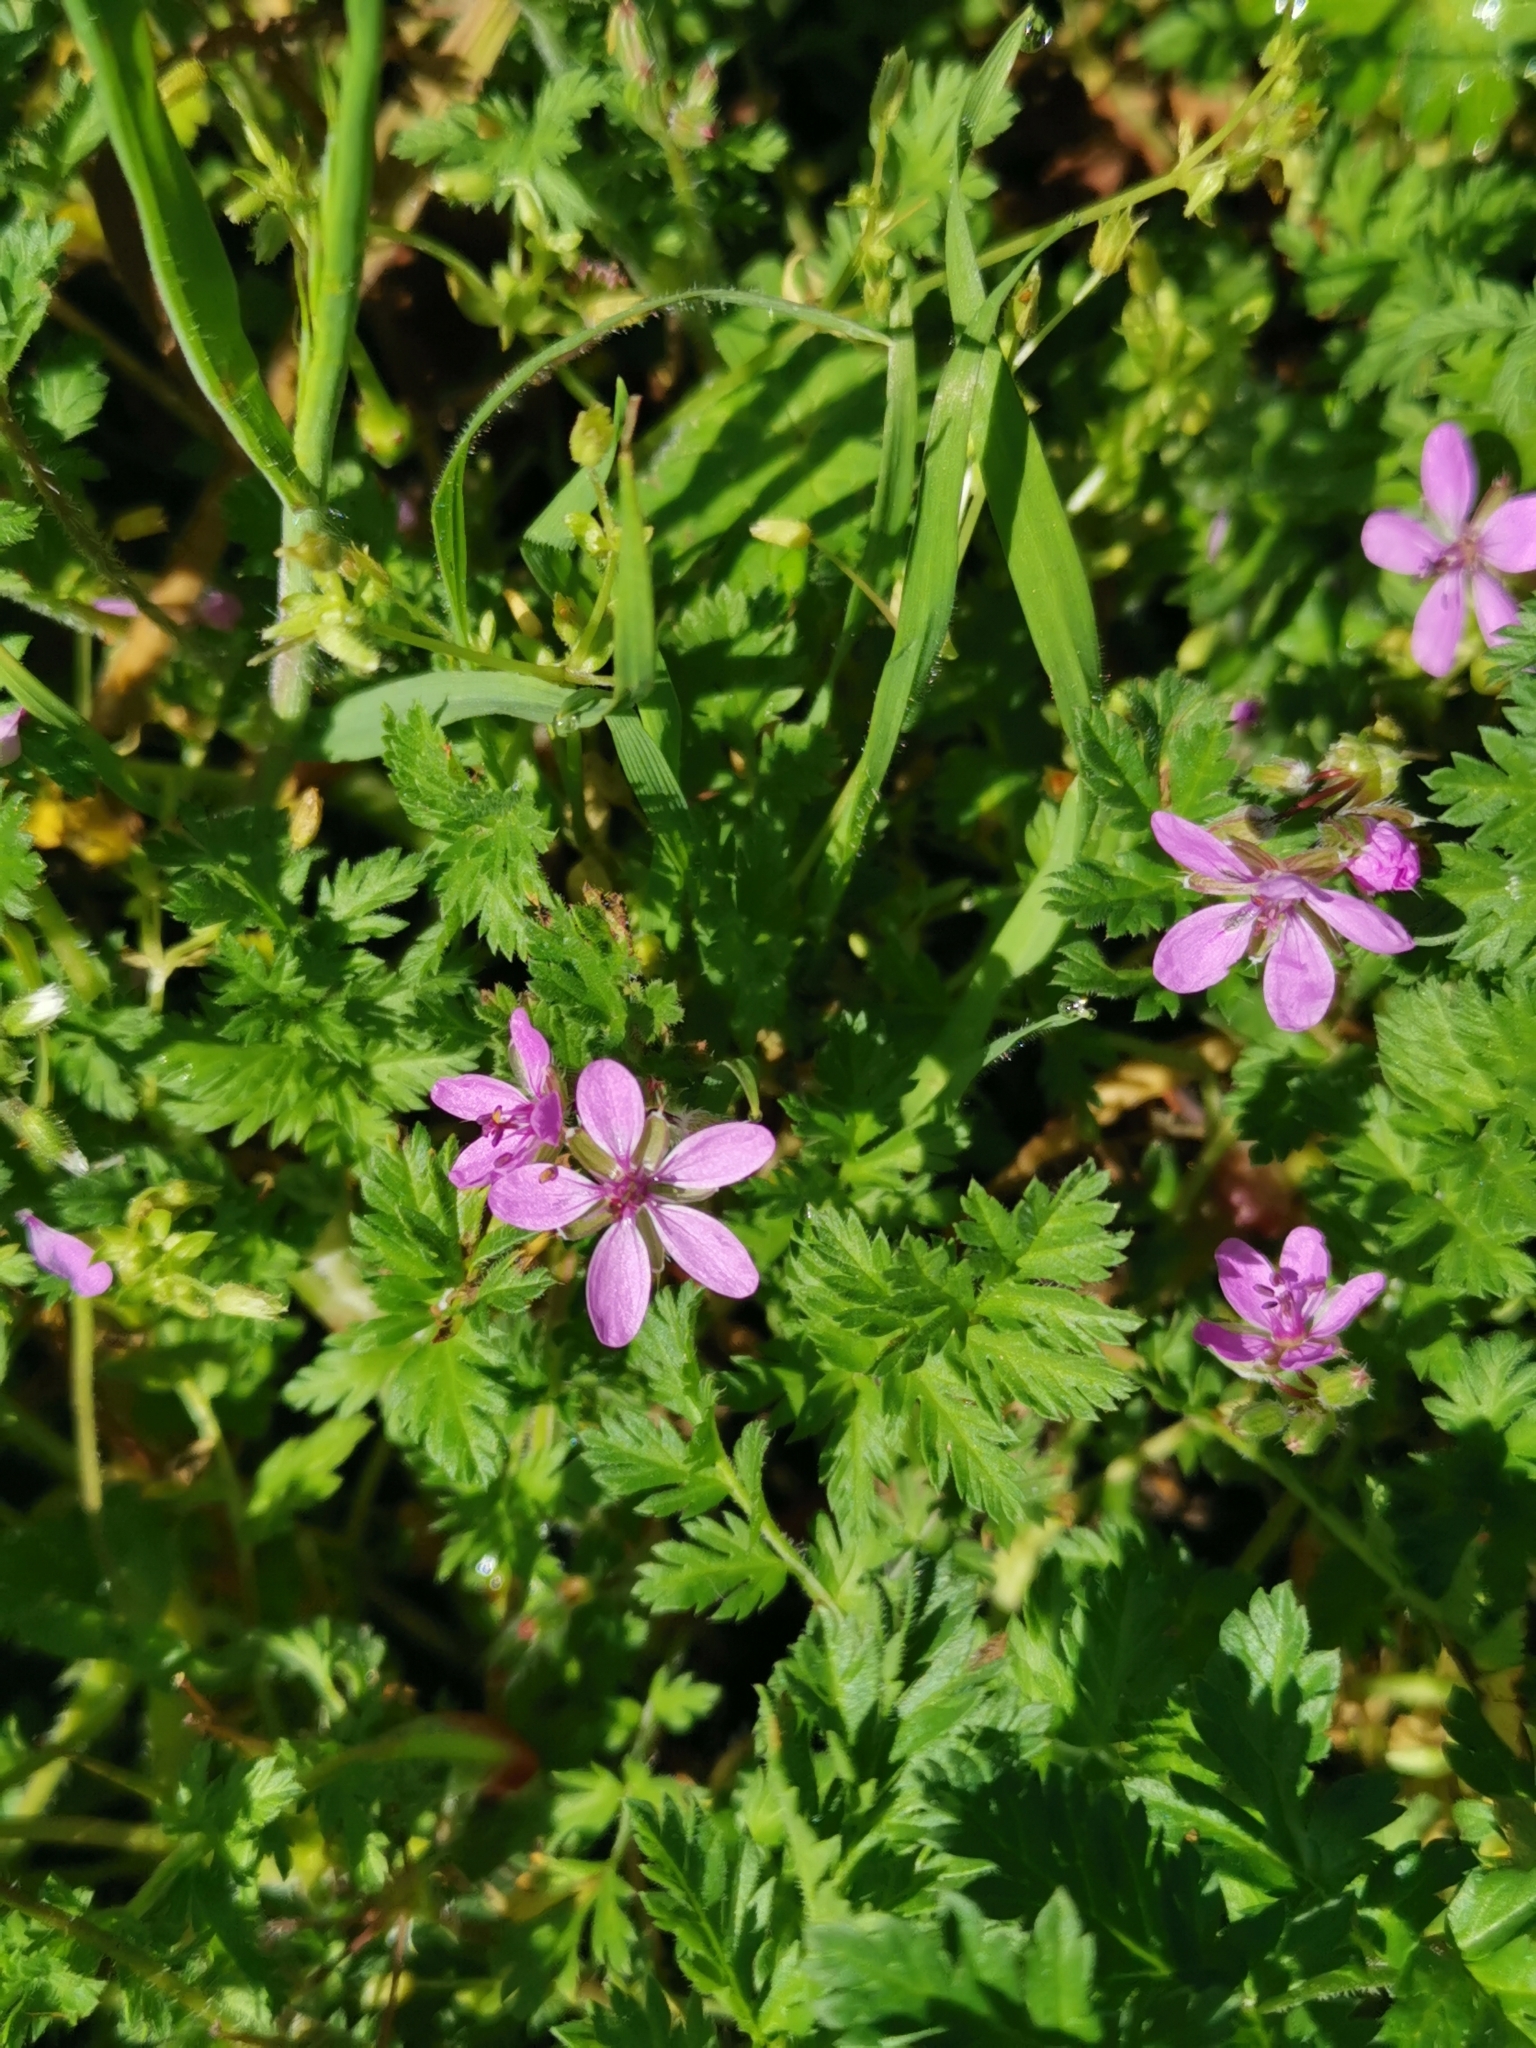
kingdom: Plantae
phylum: Tracheophyta
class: Magnoliopsida
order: Geraniales
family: Geraniaceae
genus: Erodium
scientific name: Erodium cicutarium
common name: Common stork's-bill
